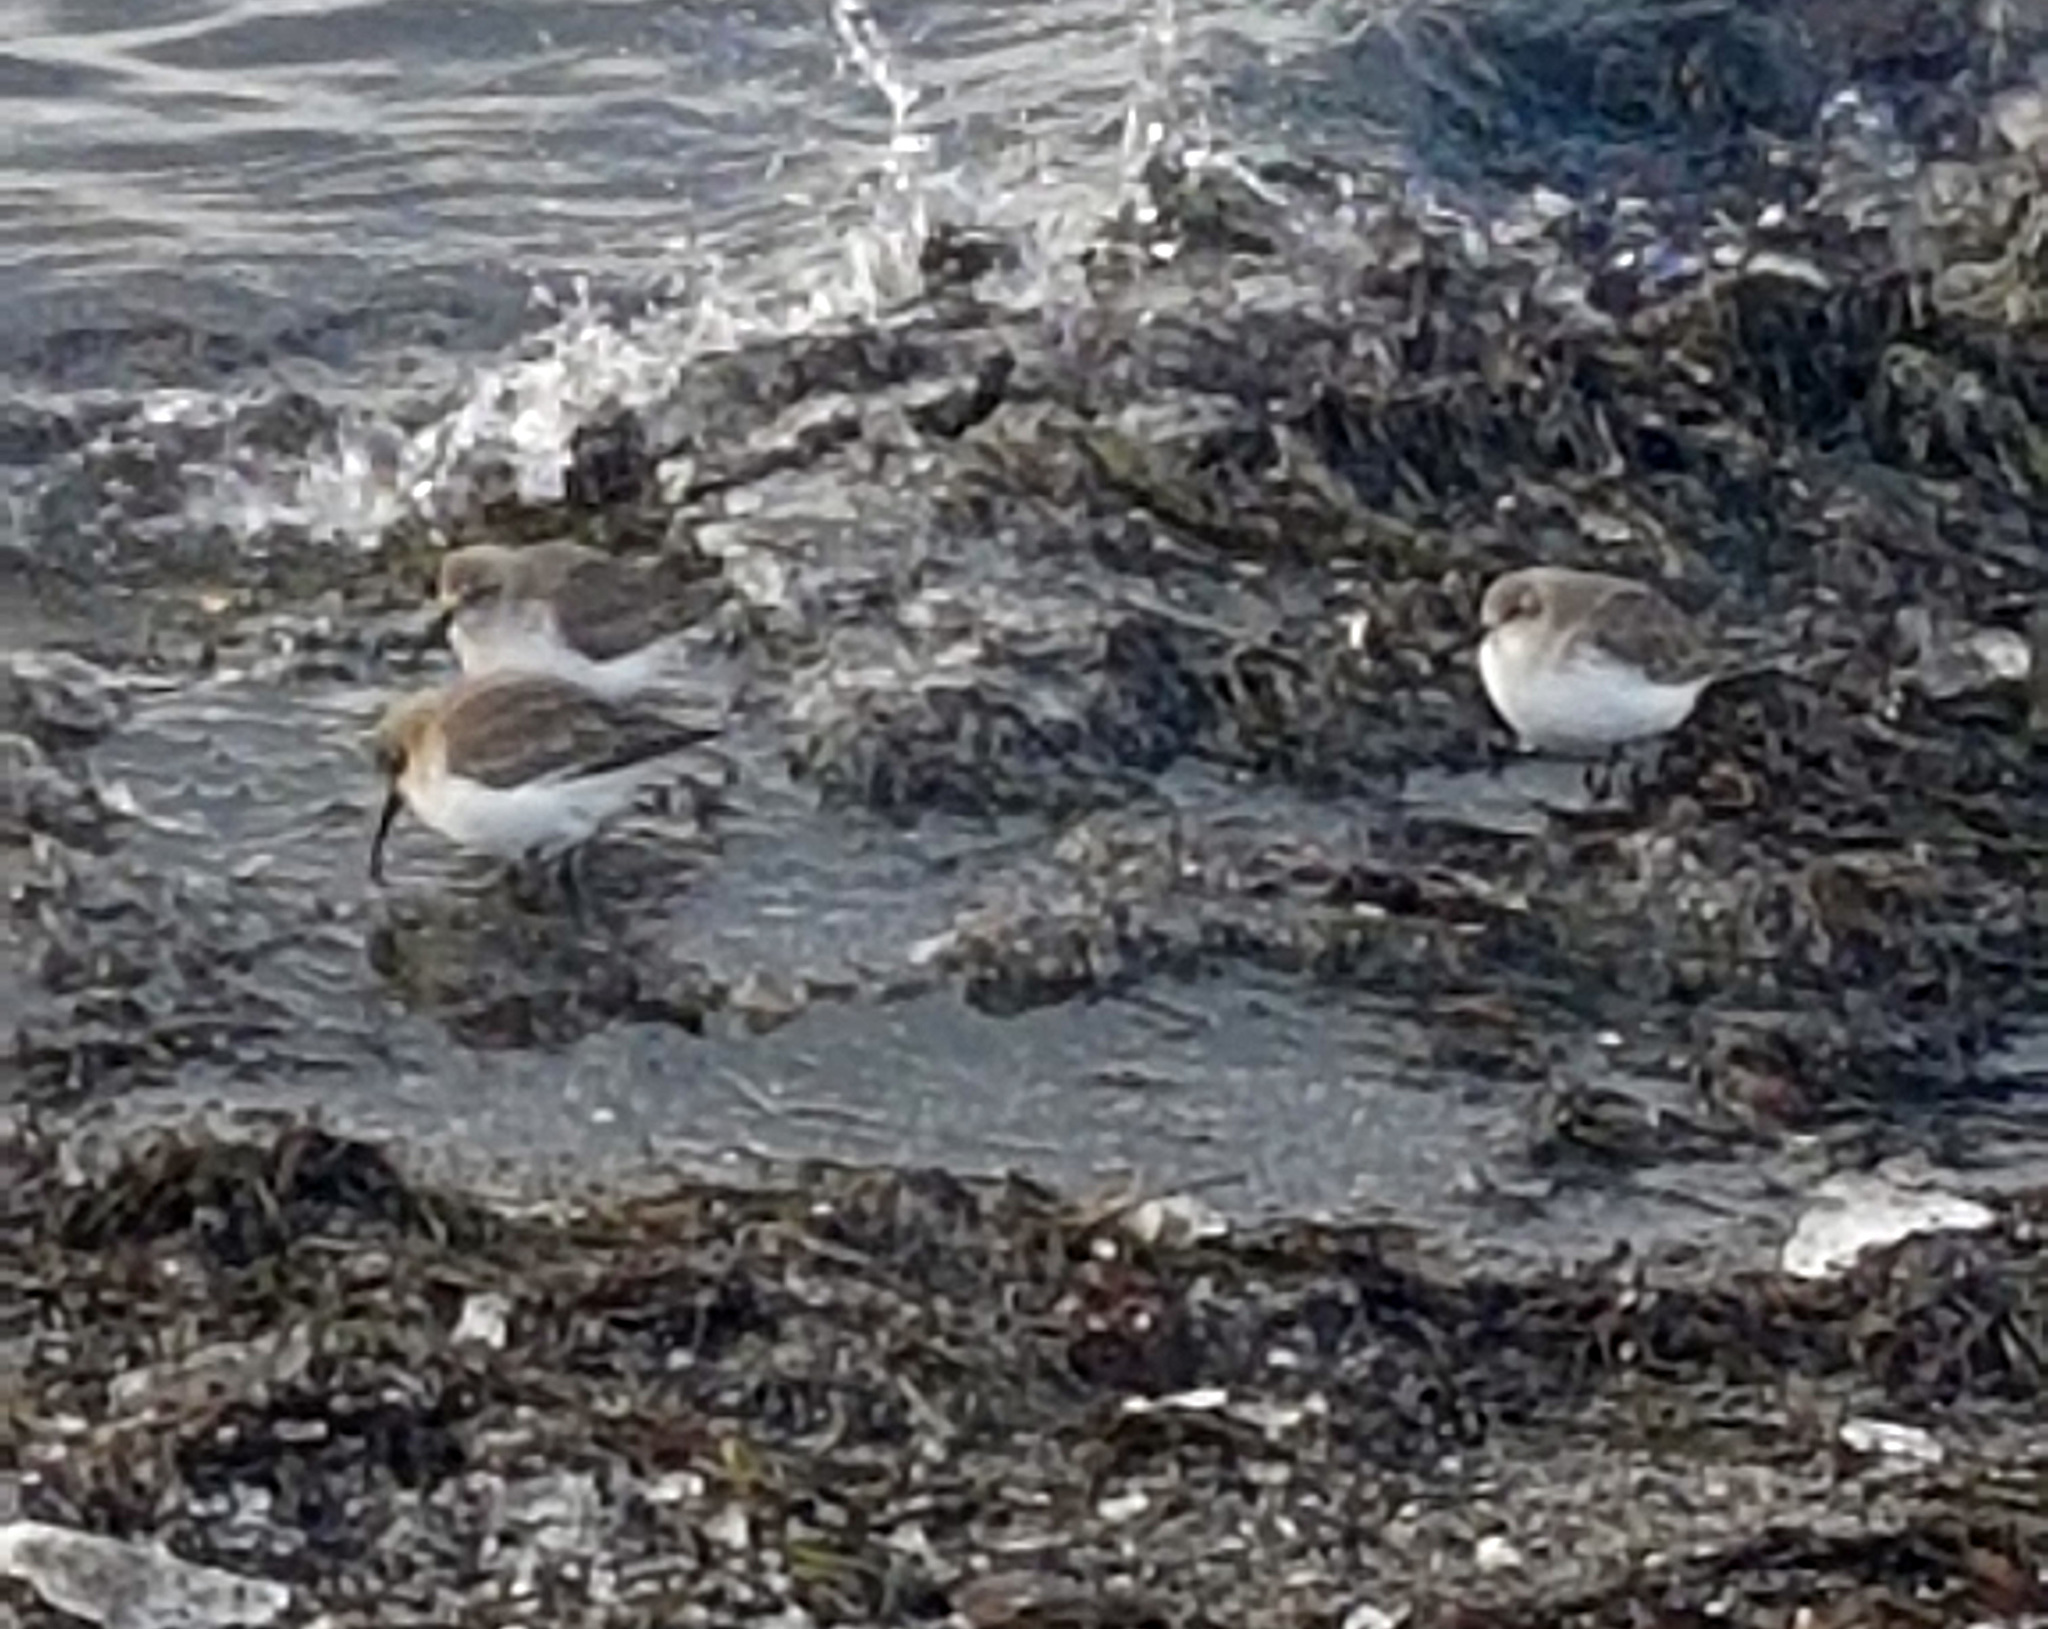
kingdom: Animalia
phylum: Chordata
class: Aves
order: Charadriiformes
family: Scolopacidae
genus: Calidris
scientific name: Calidris alpina
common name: Dunlin
